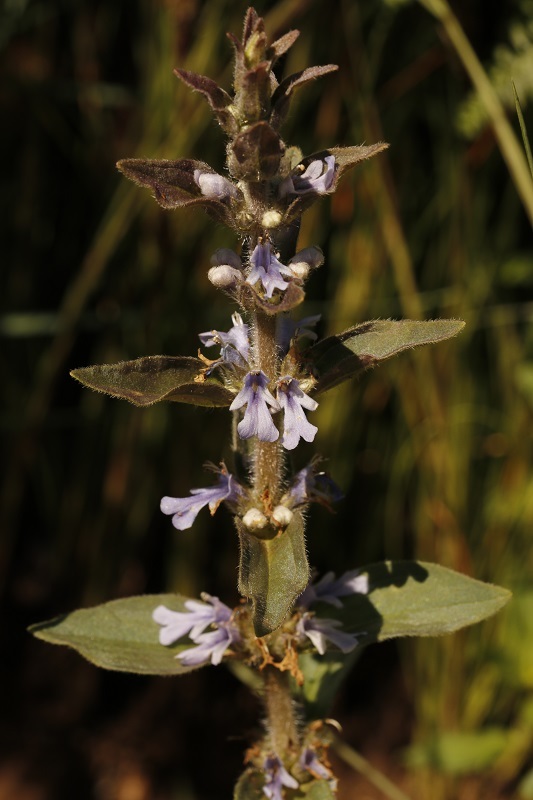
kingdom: Plantae
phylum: Tracheophyta
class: Magnoliopsida
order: Lamiales
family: Lamiaceae
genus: Ajuga
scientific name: Ajuga ophrydis
